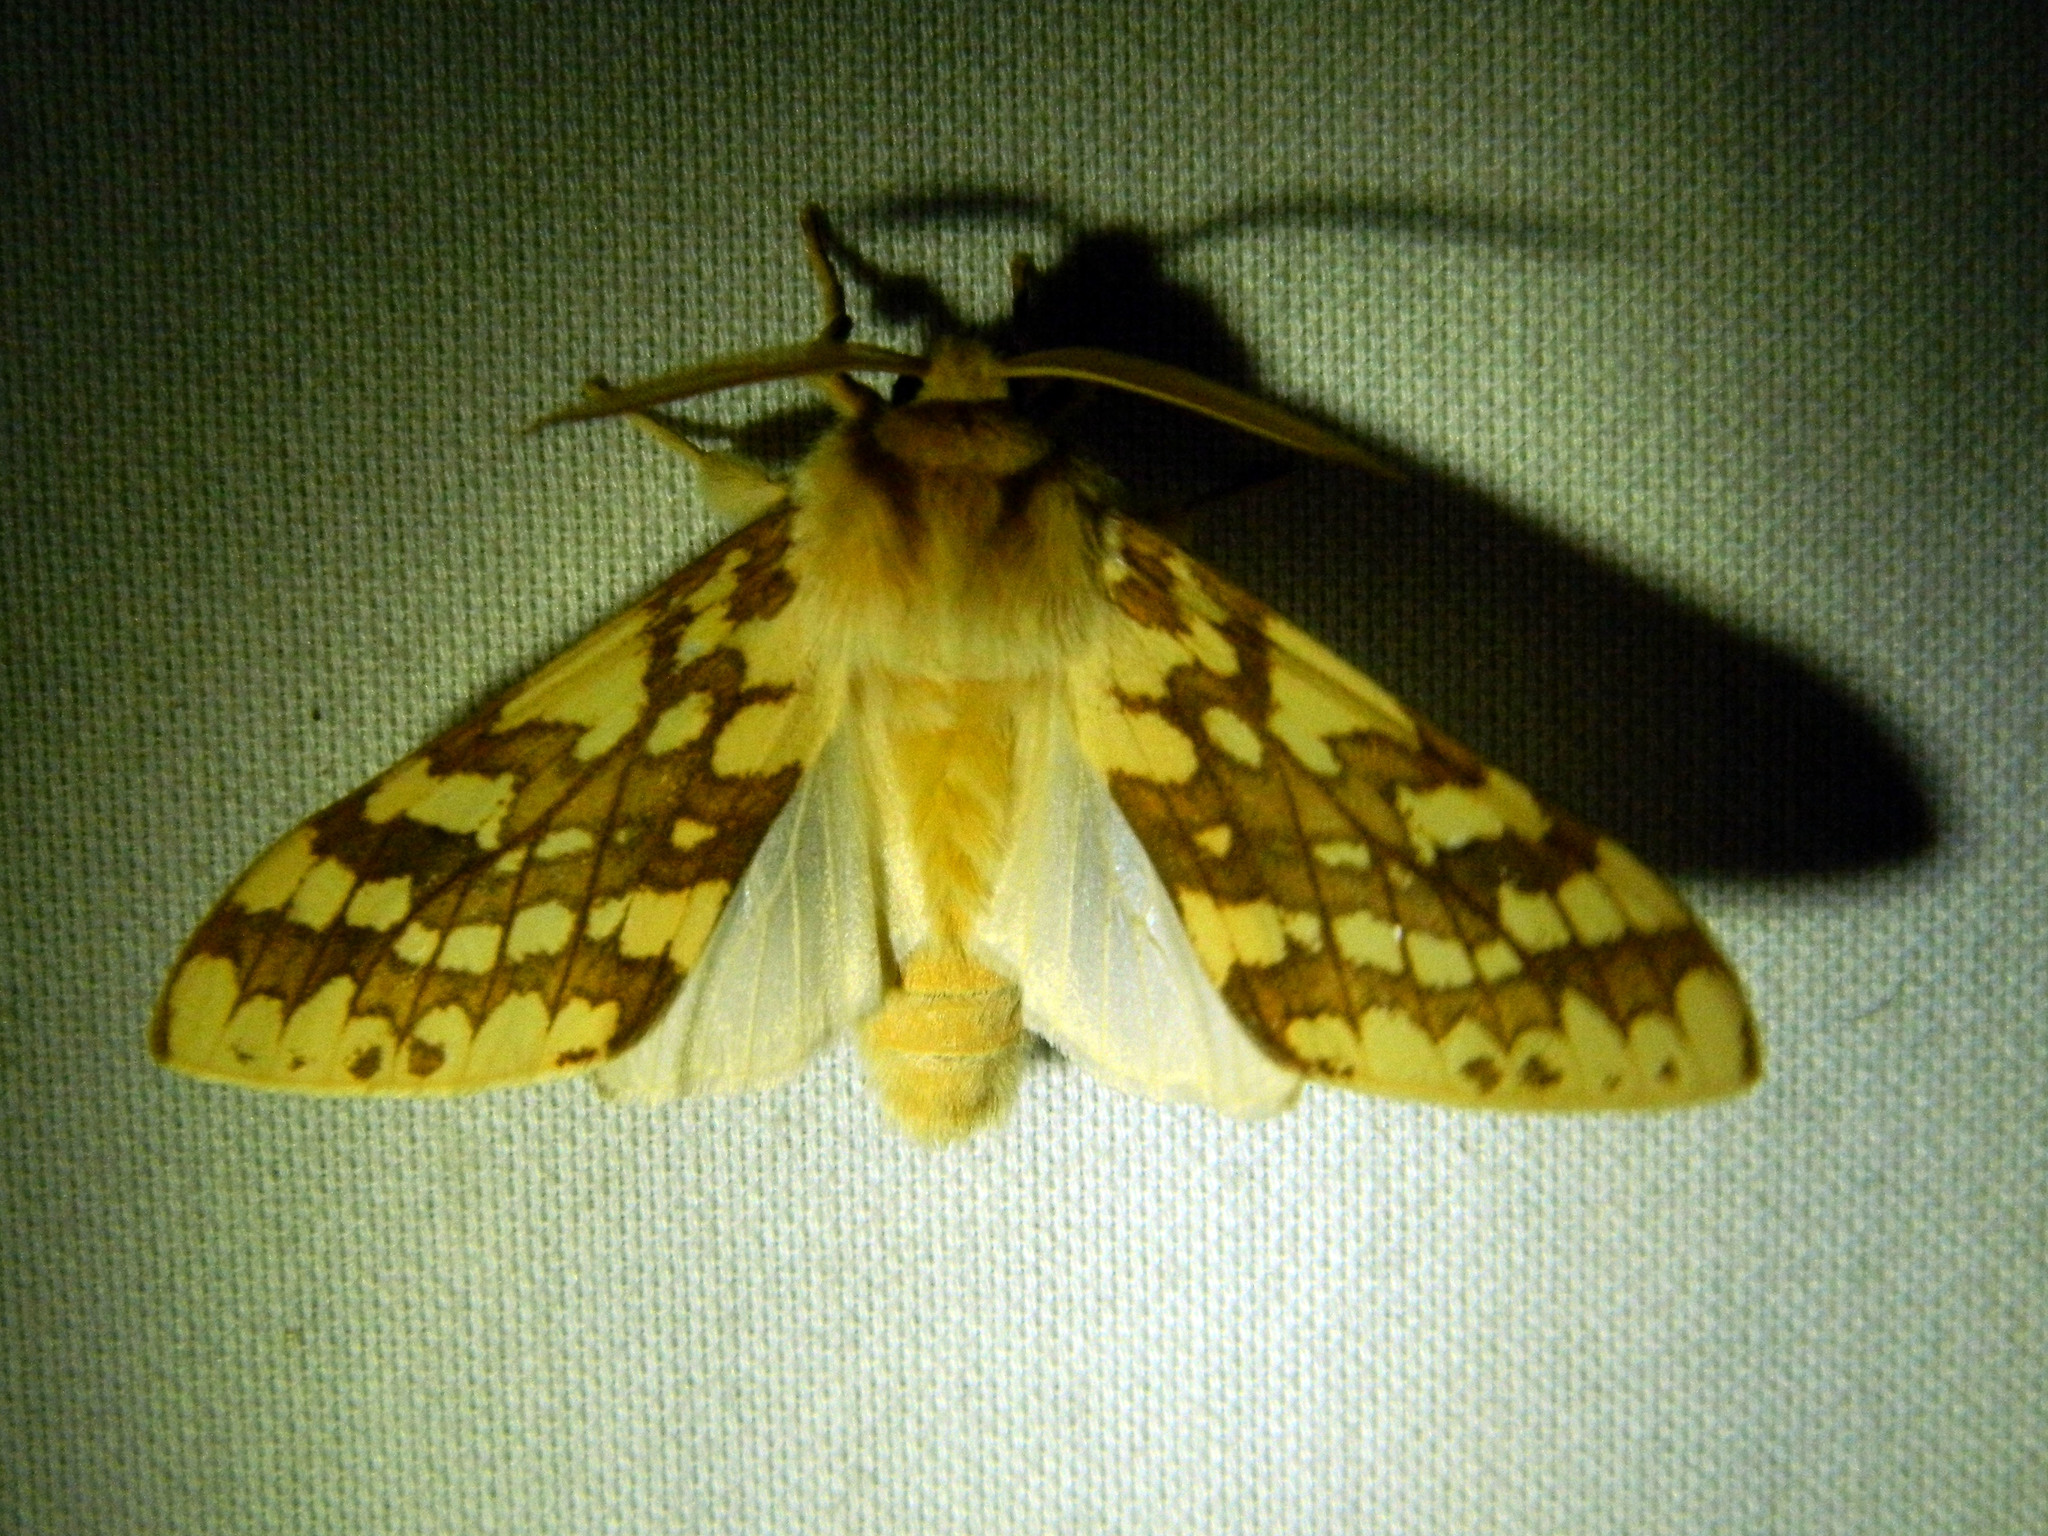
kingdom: Animalia
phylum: Arthropoda
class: Insecta
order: Lepidoptera
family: Erebidae
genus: Lophocampa
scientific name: Lophocampa maculata
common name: Spotted tussock moth
